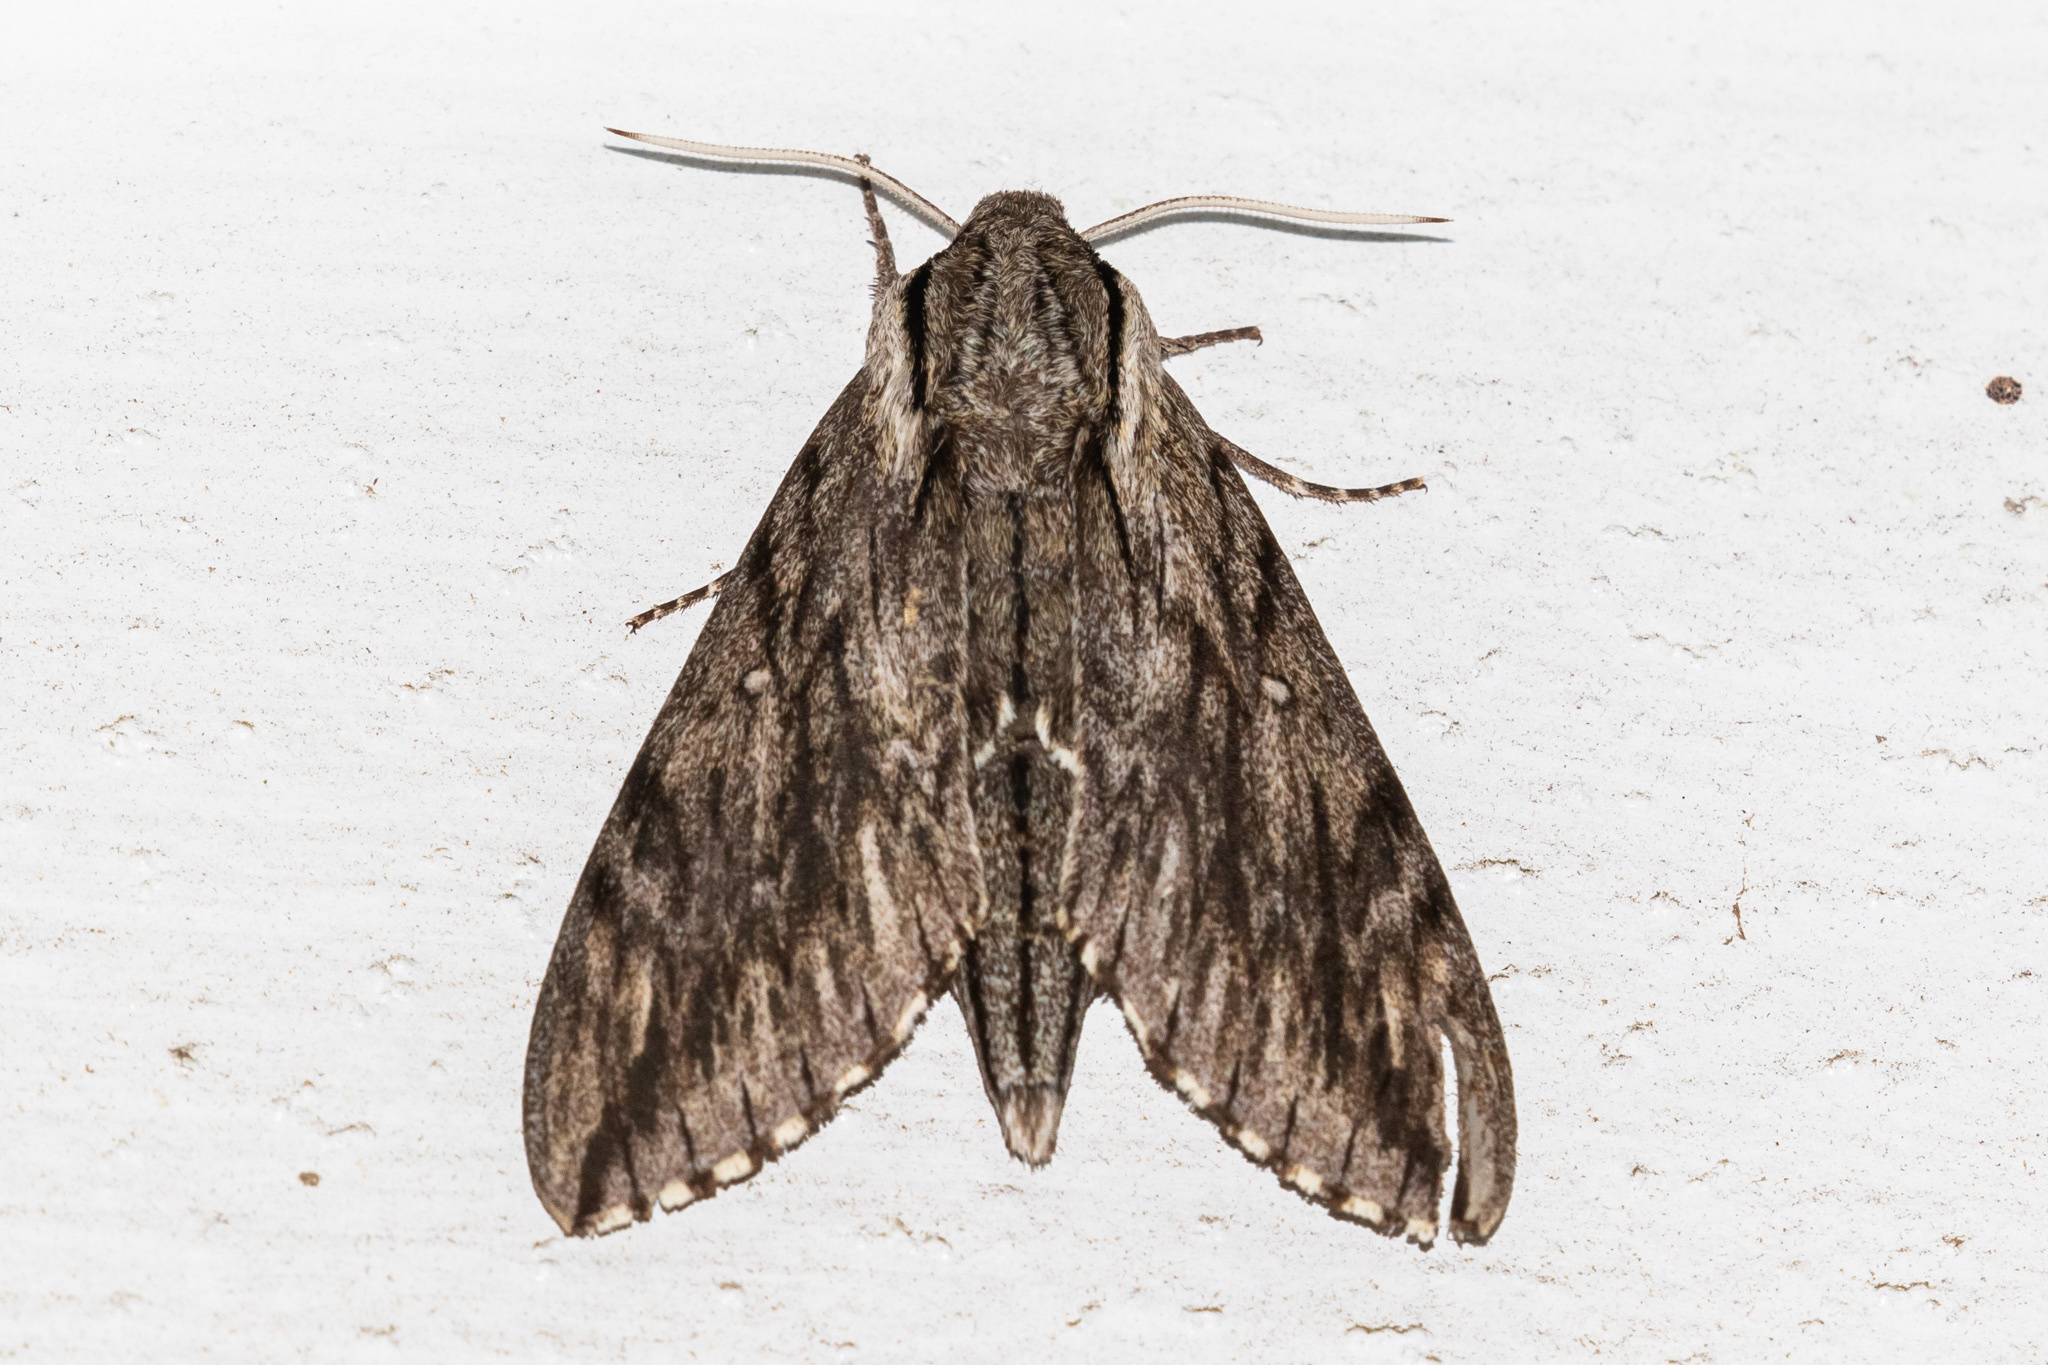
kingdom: Animalia
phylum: Arthropoda
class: Insecta
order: Lepidoptera
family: Sphingidae
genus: Paratrea
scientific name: Paratrea plebeja
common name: Plebian sphinx
